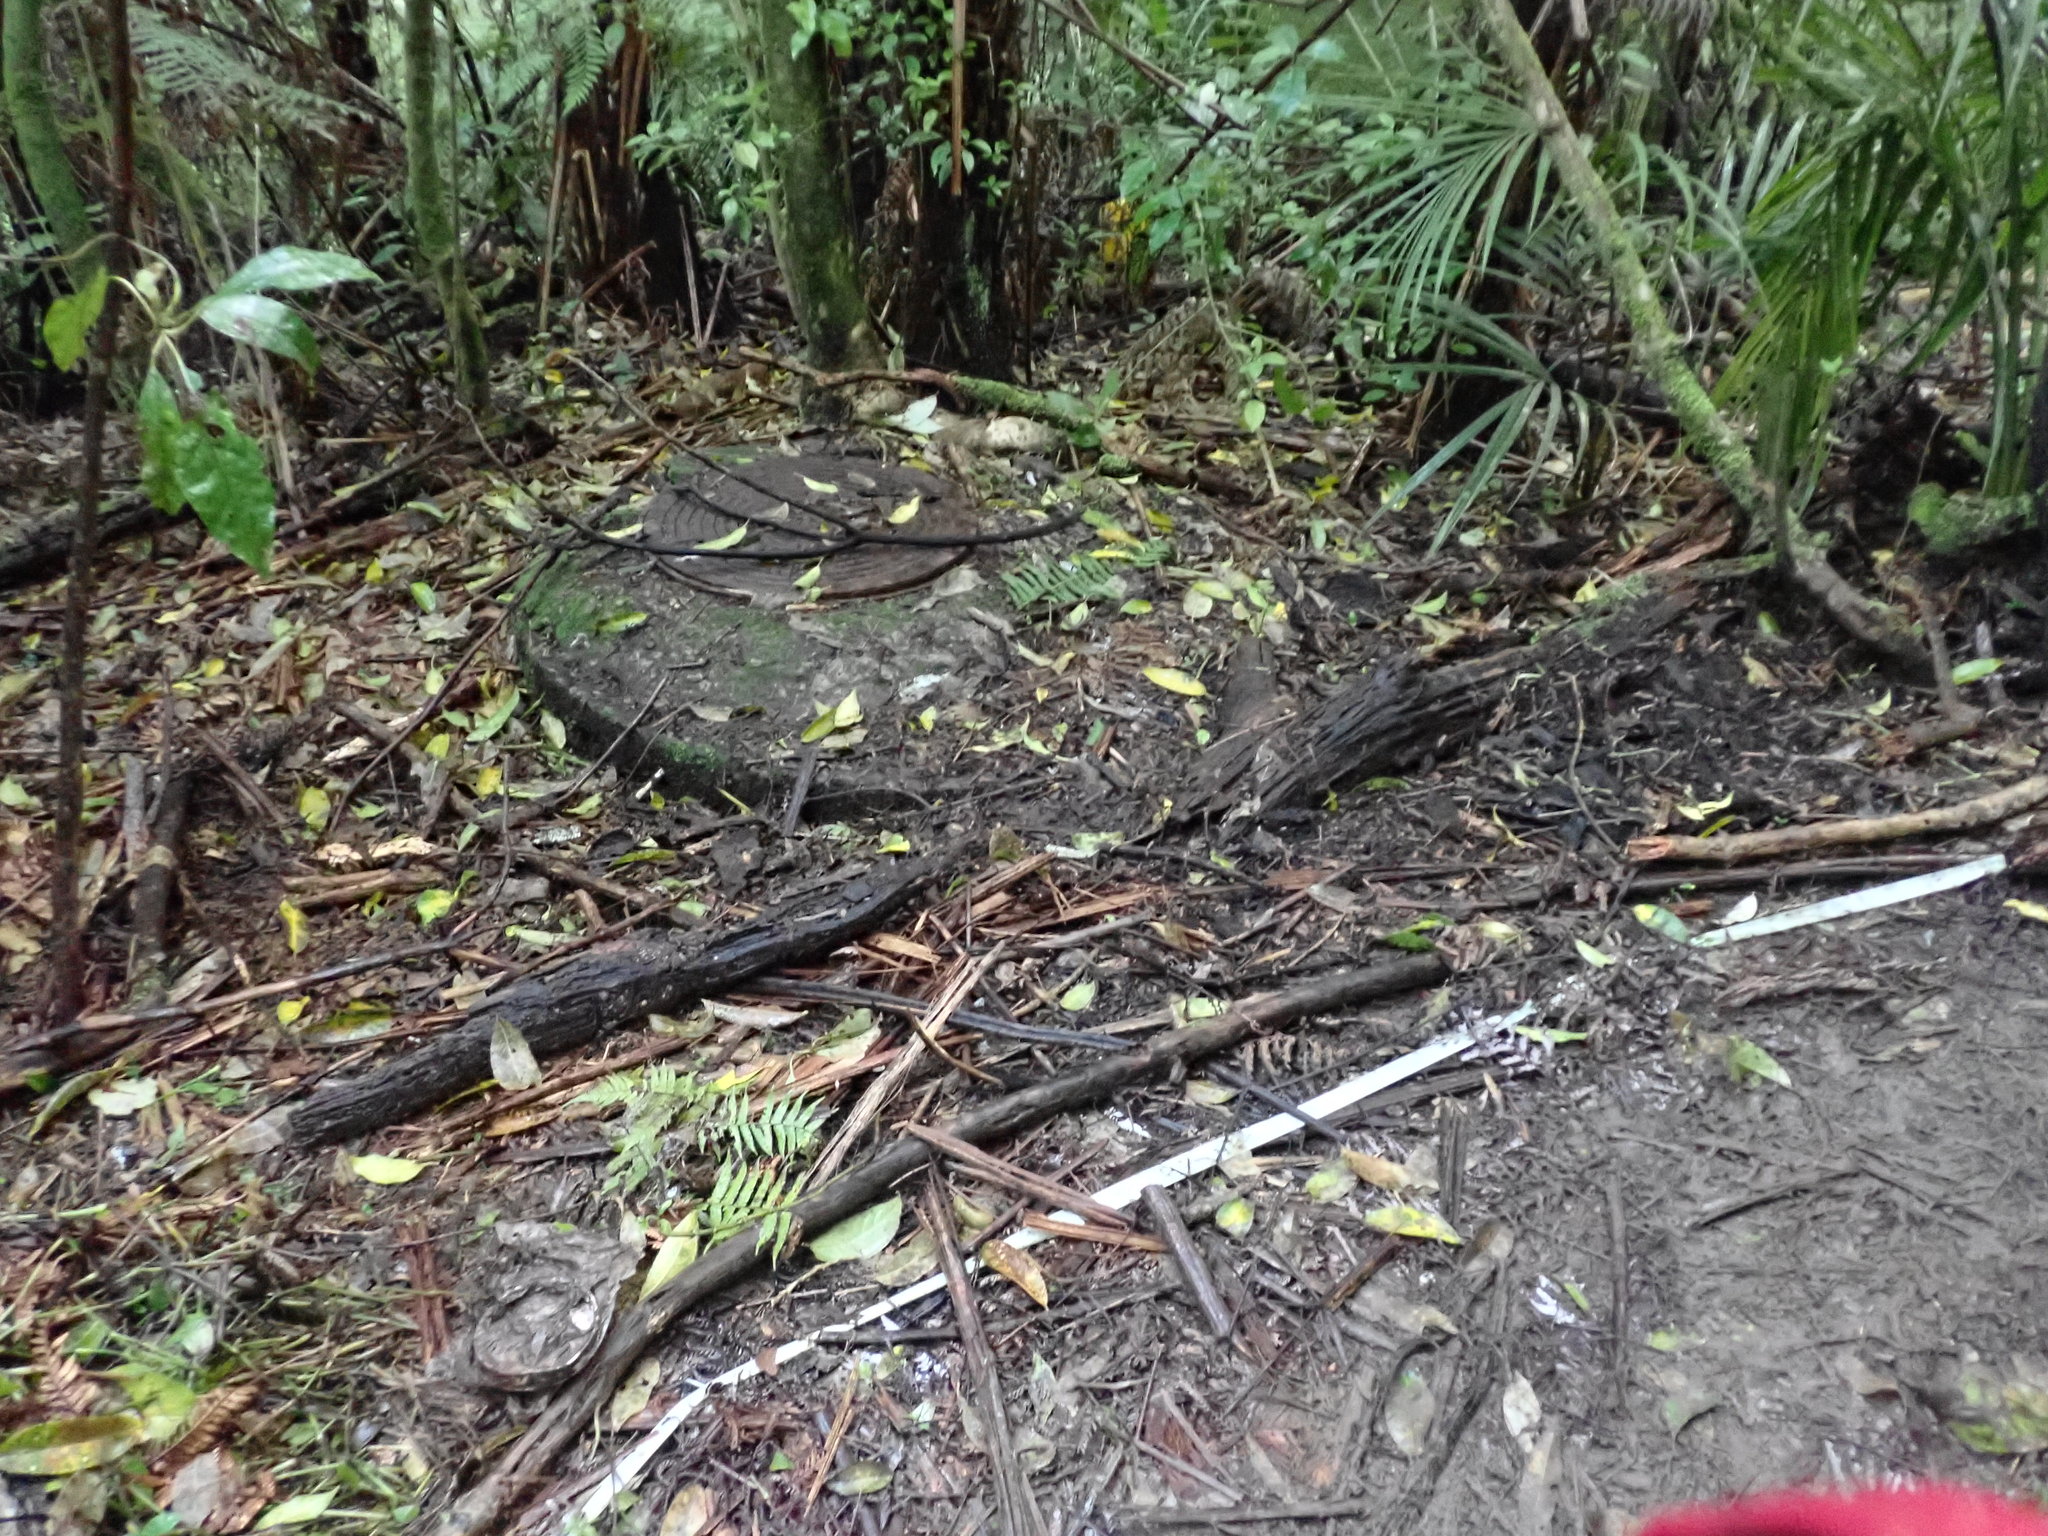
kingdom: Plantae
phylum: Tracheophyta
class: Liliopsida
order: Commelinales
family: Commelinaceae
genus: Tradescantia
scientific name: Tradescantia fluminensis
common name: Wandering-jew
